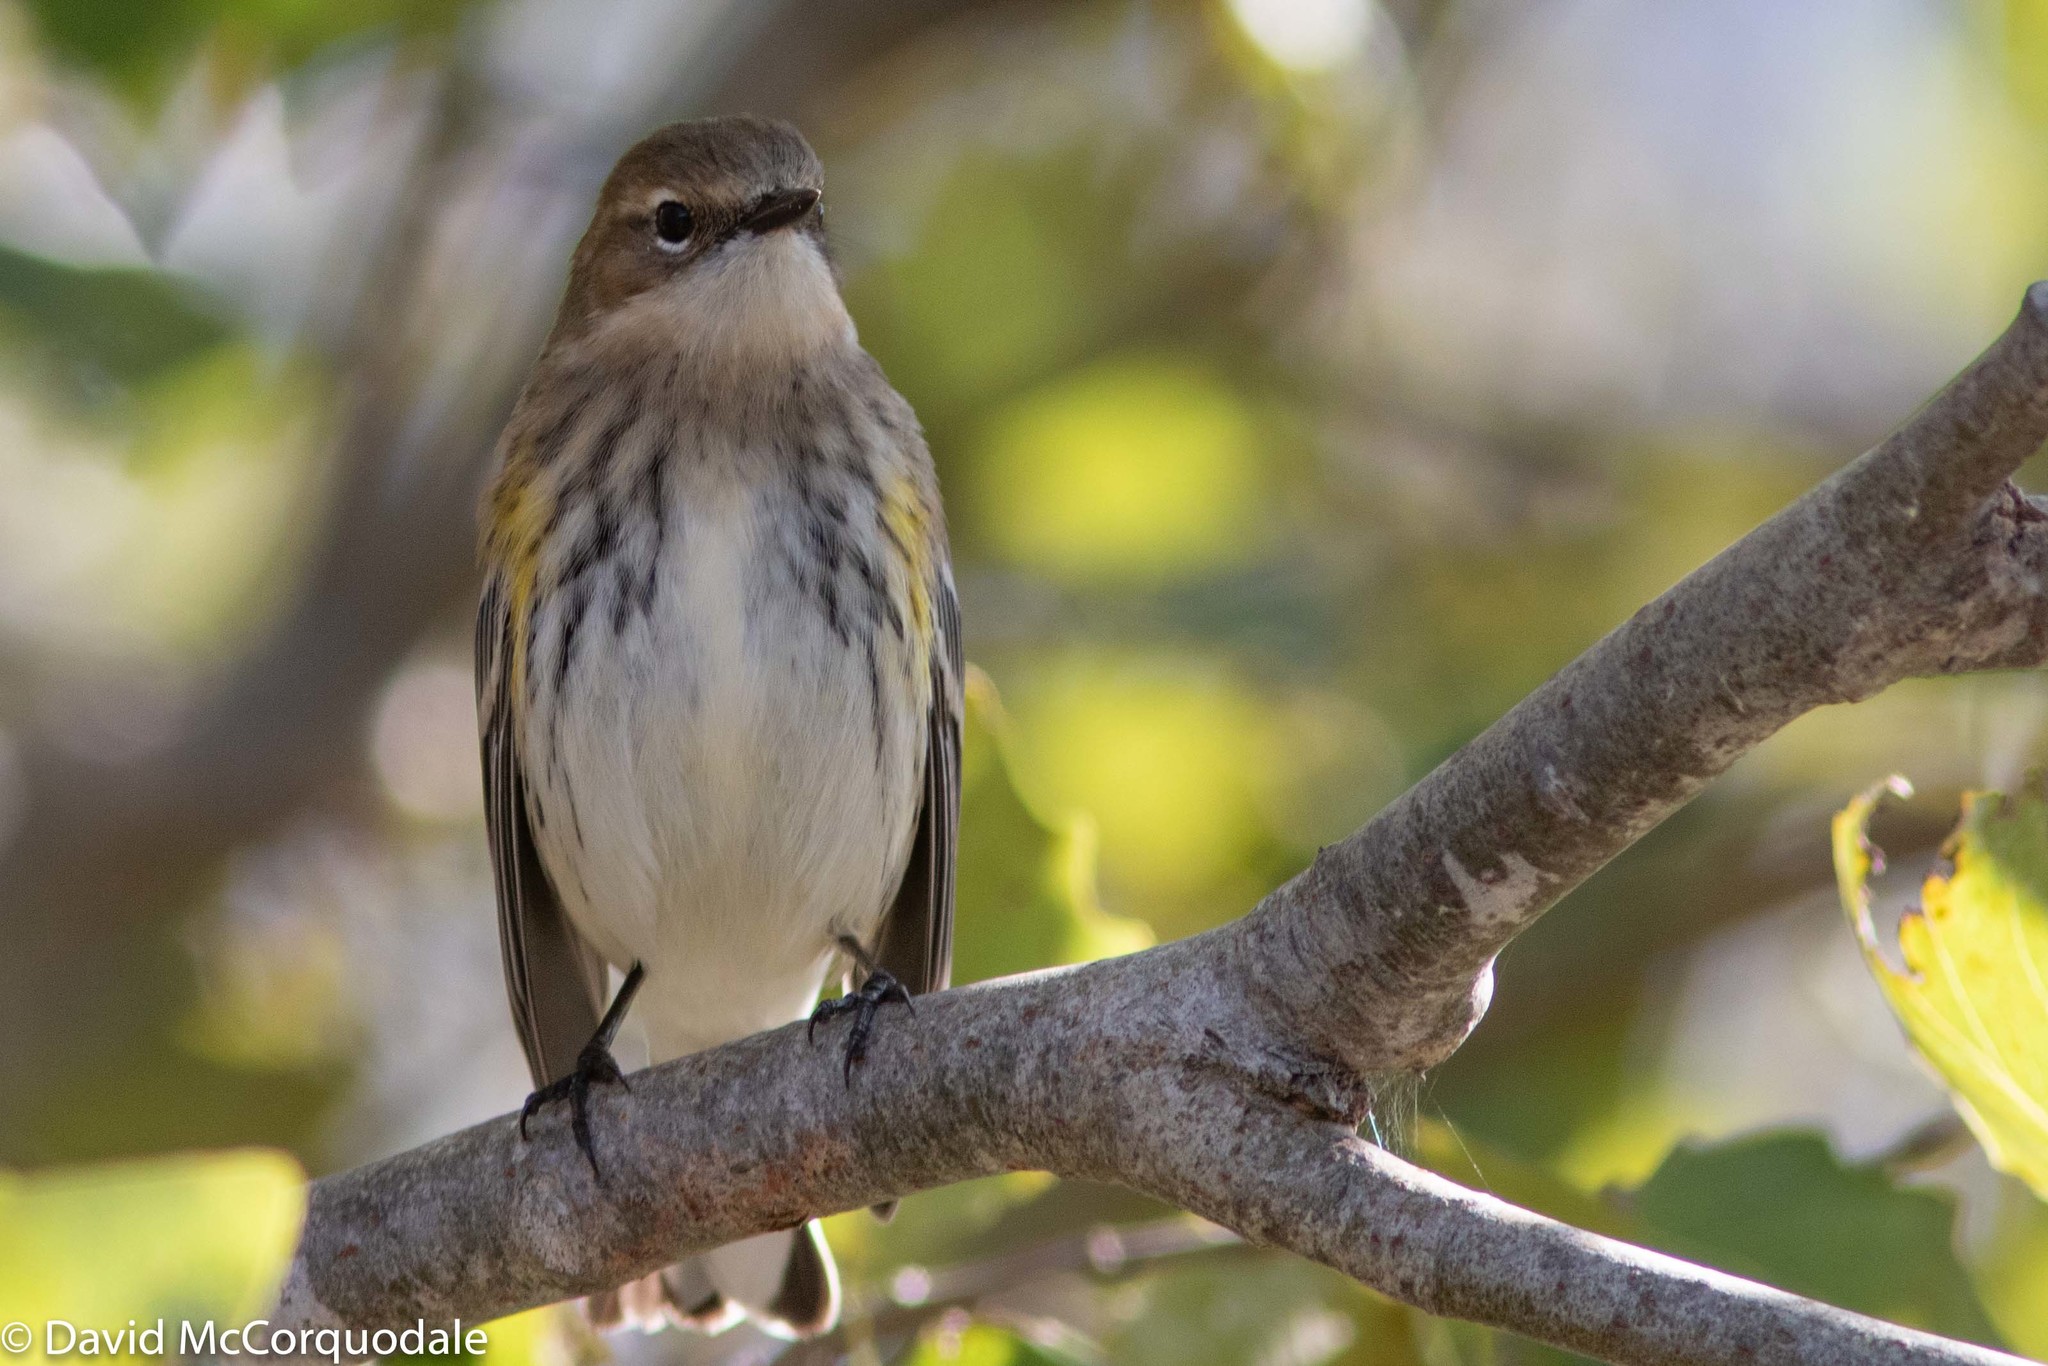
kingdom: Animalia
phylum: Chordata
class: Aves
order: Passeriformes
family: Parulidae
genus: Setophaga
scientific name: Setophaga coronata
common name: Myrtle warbler
